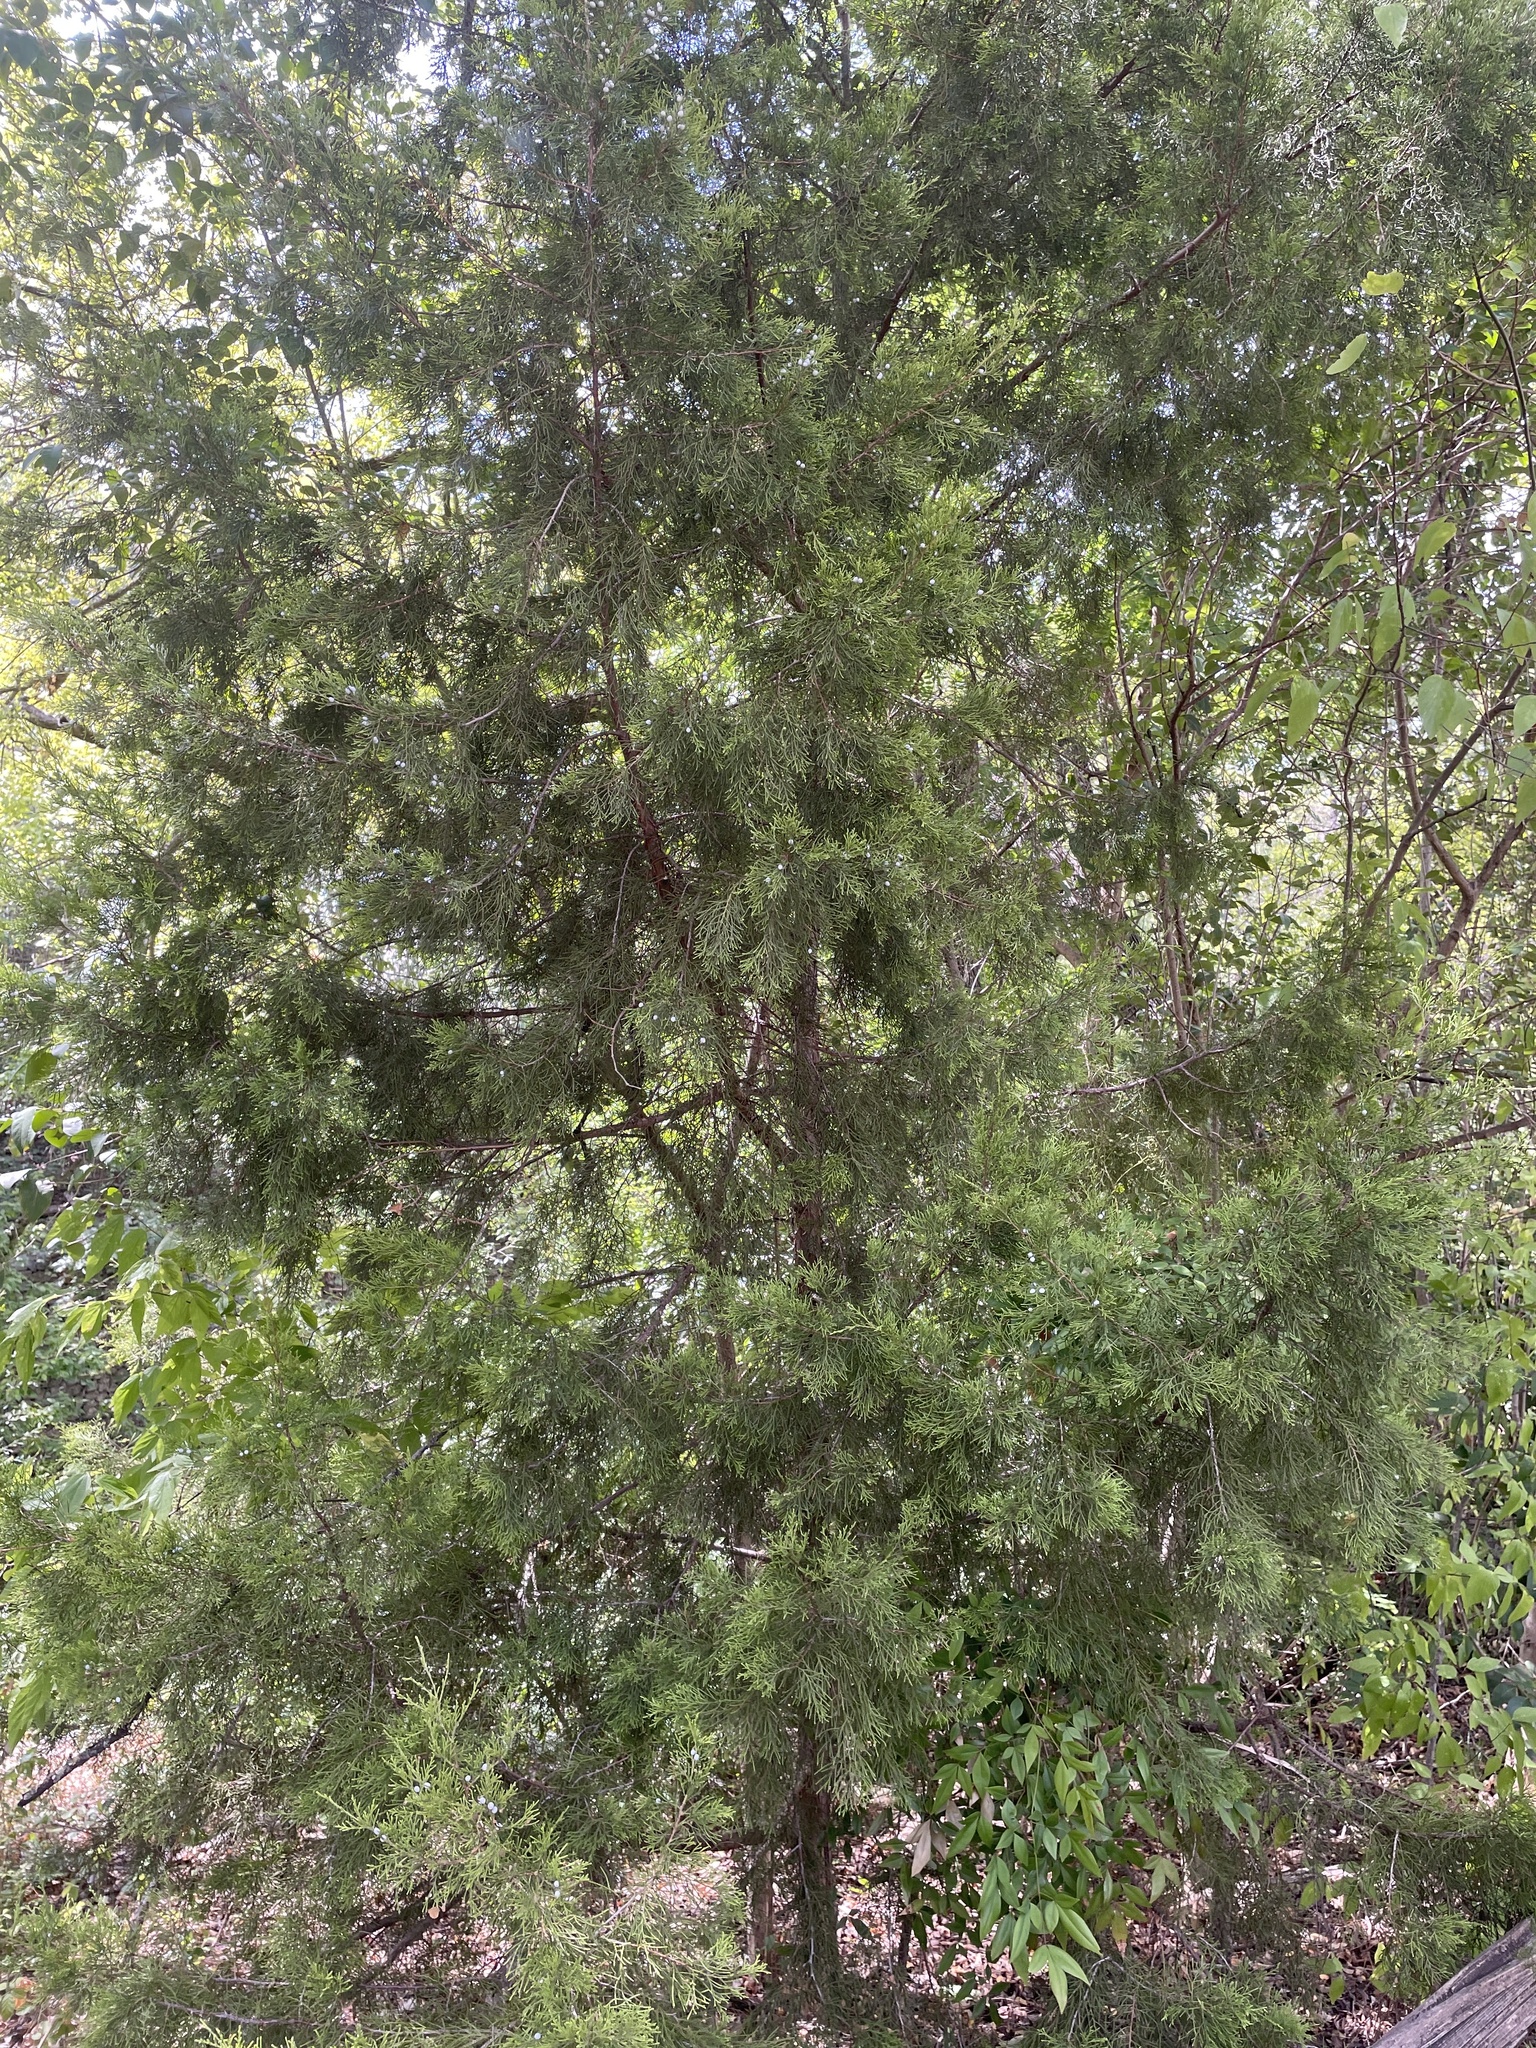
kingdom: Plantae
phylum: Tracheophyta
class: Pinopsida
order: Pinales
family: Cupressaceae
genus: Juniperus
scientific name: Juniperus virginiana
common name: Red juniper
